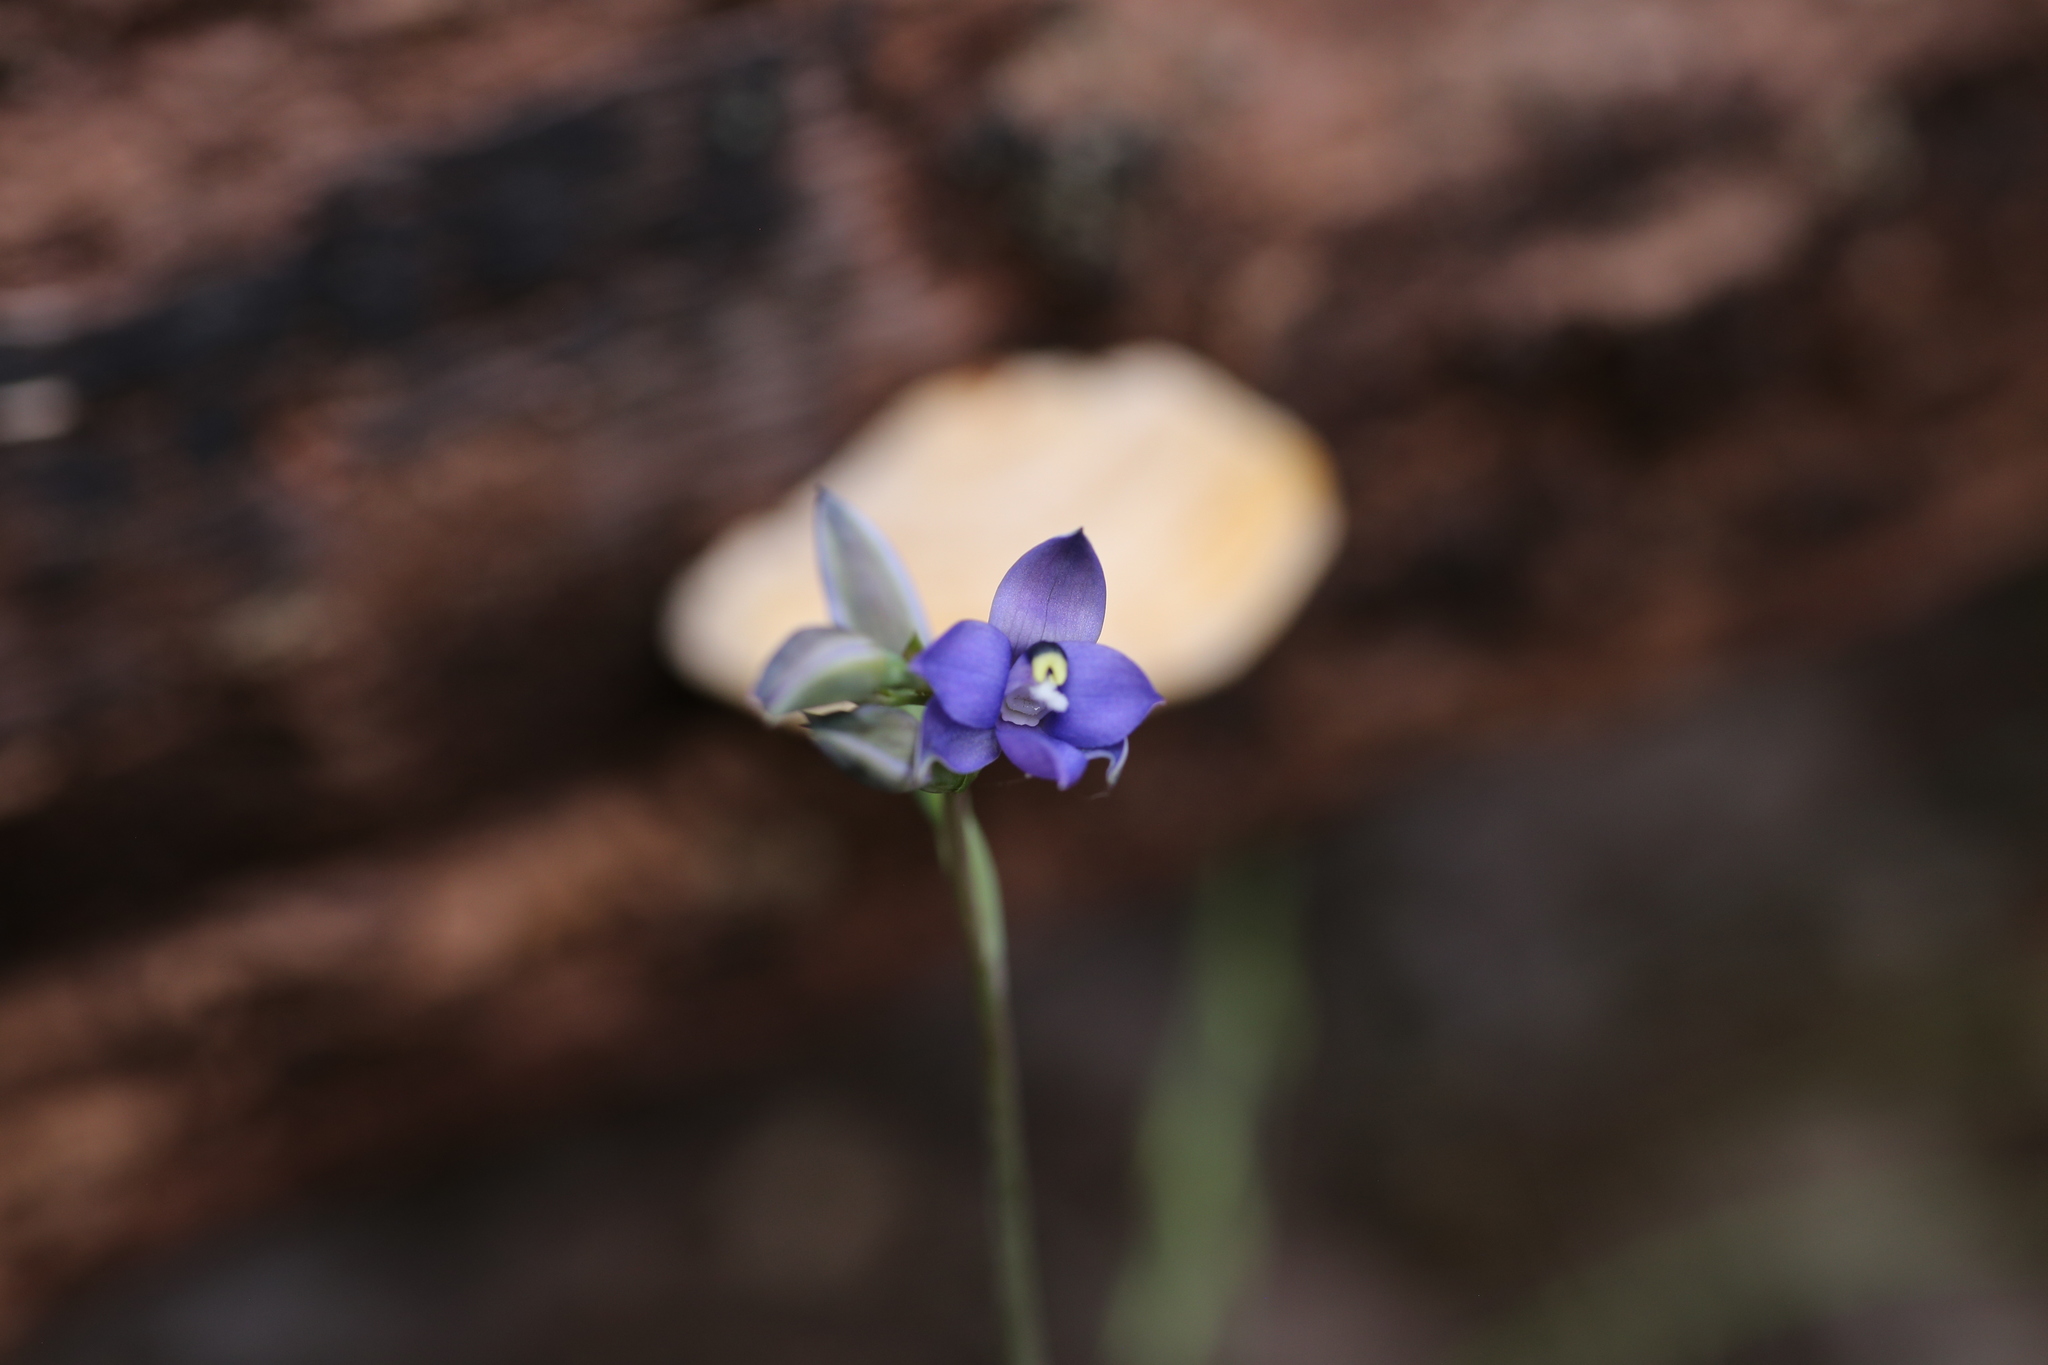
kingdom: Plantae
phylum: Tracheophyta
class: Liliopsida
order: Asparagales
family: Orchidaceae
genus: Thelymitra
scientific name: Thelymitra graminea
